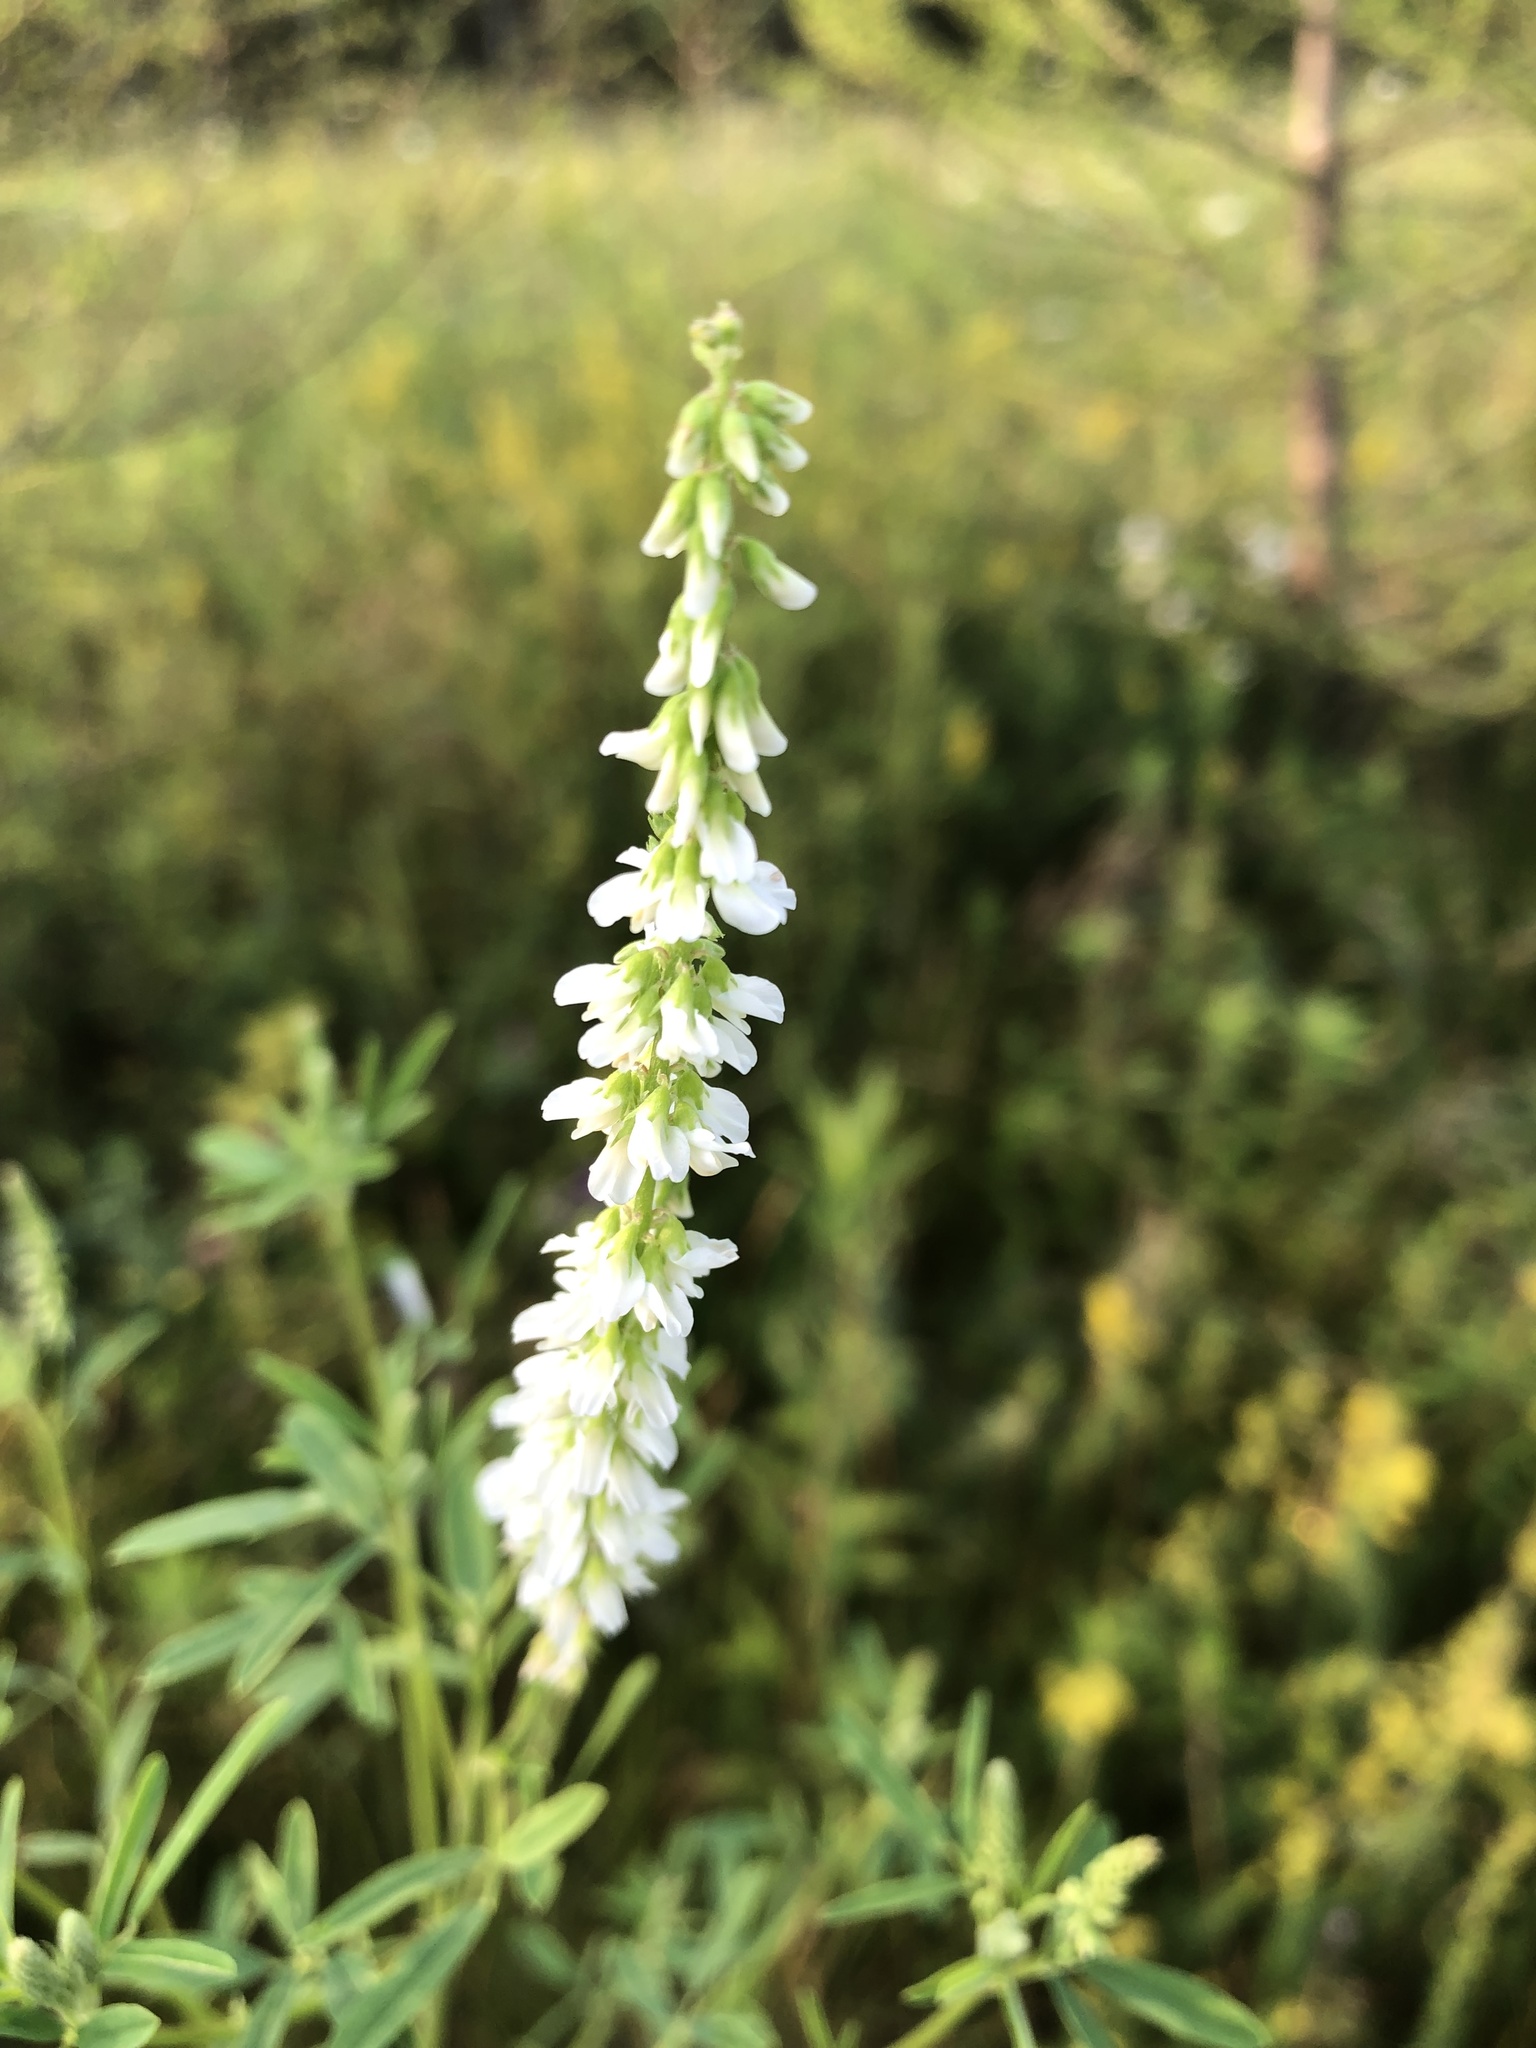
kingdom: Plantae
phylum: Tracheophyta
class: Magnoliopsida
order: Fabales
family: Fabaceae
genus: Melilotus
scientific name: Melilotus albus
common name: White melilot
